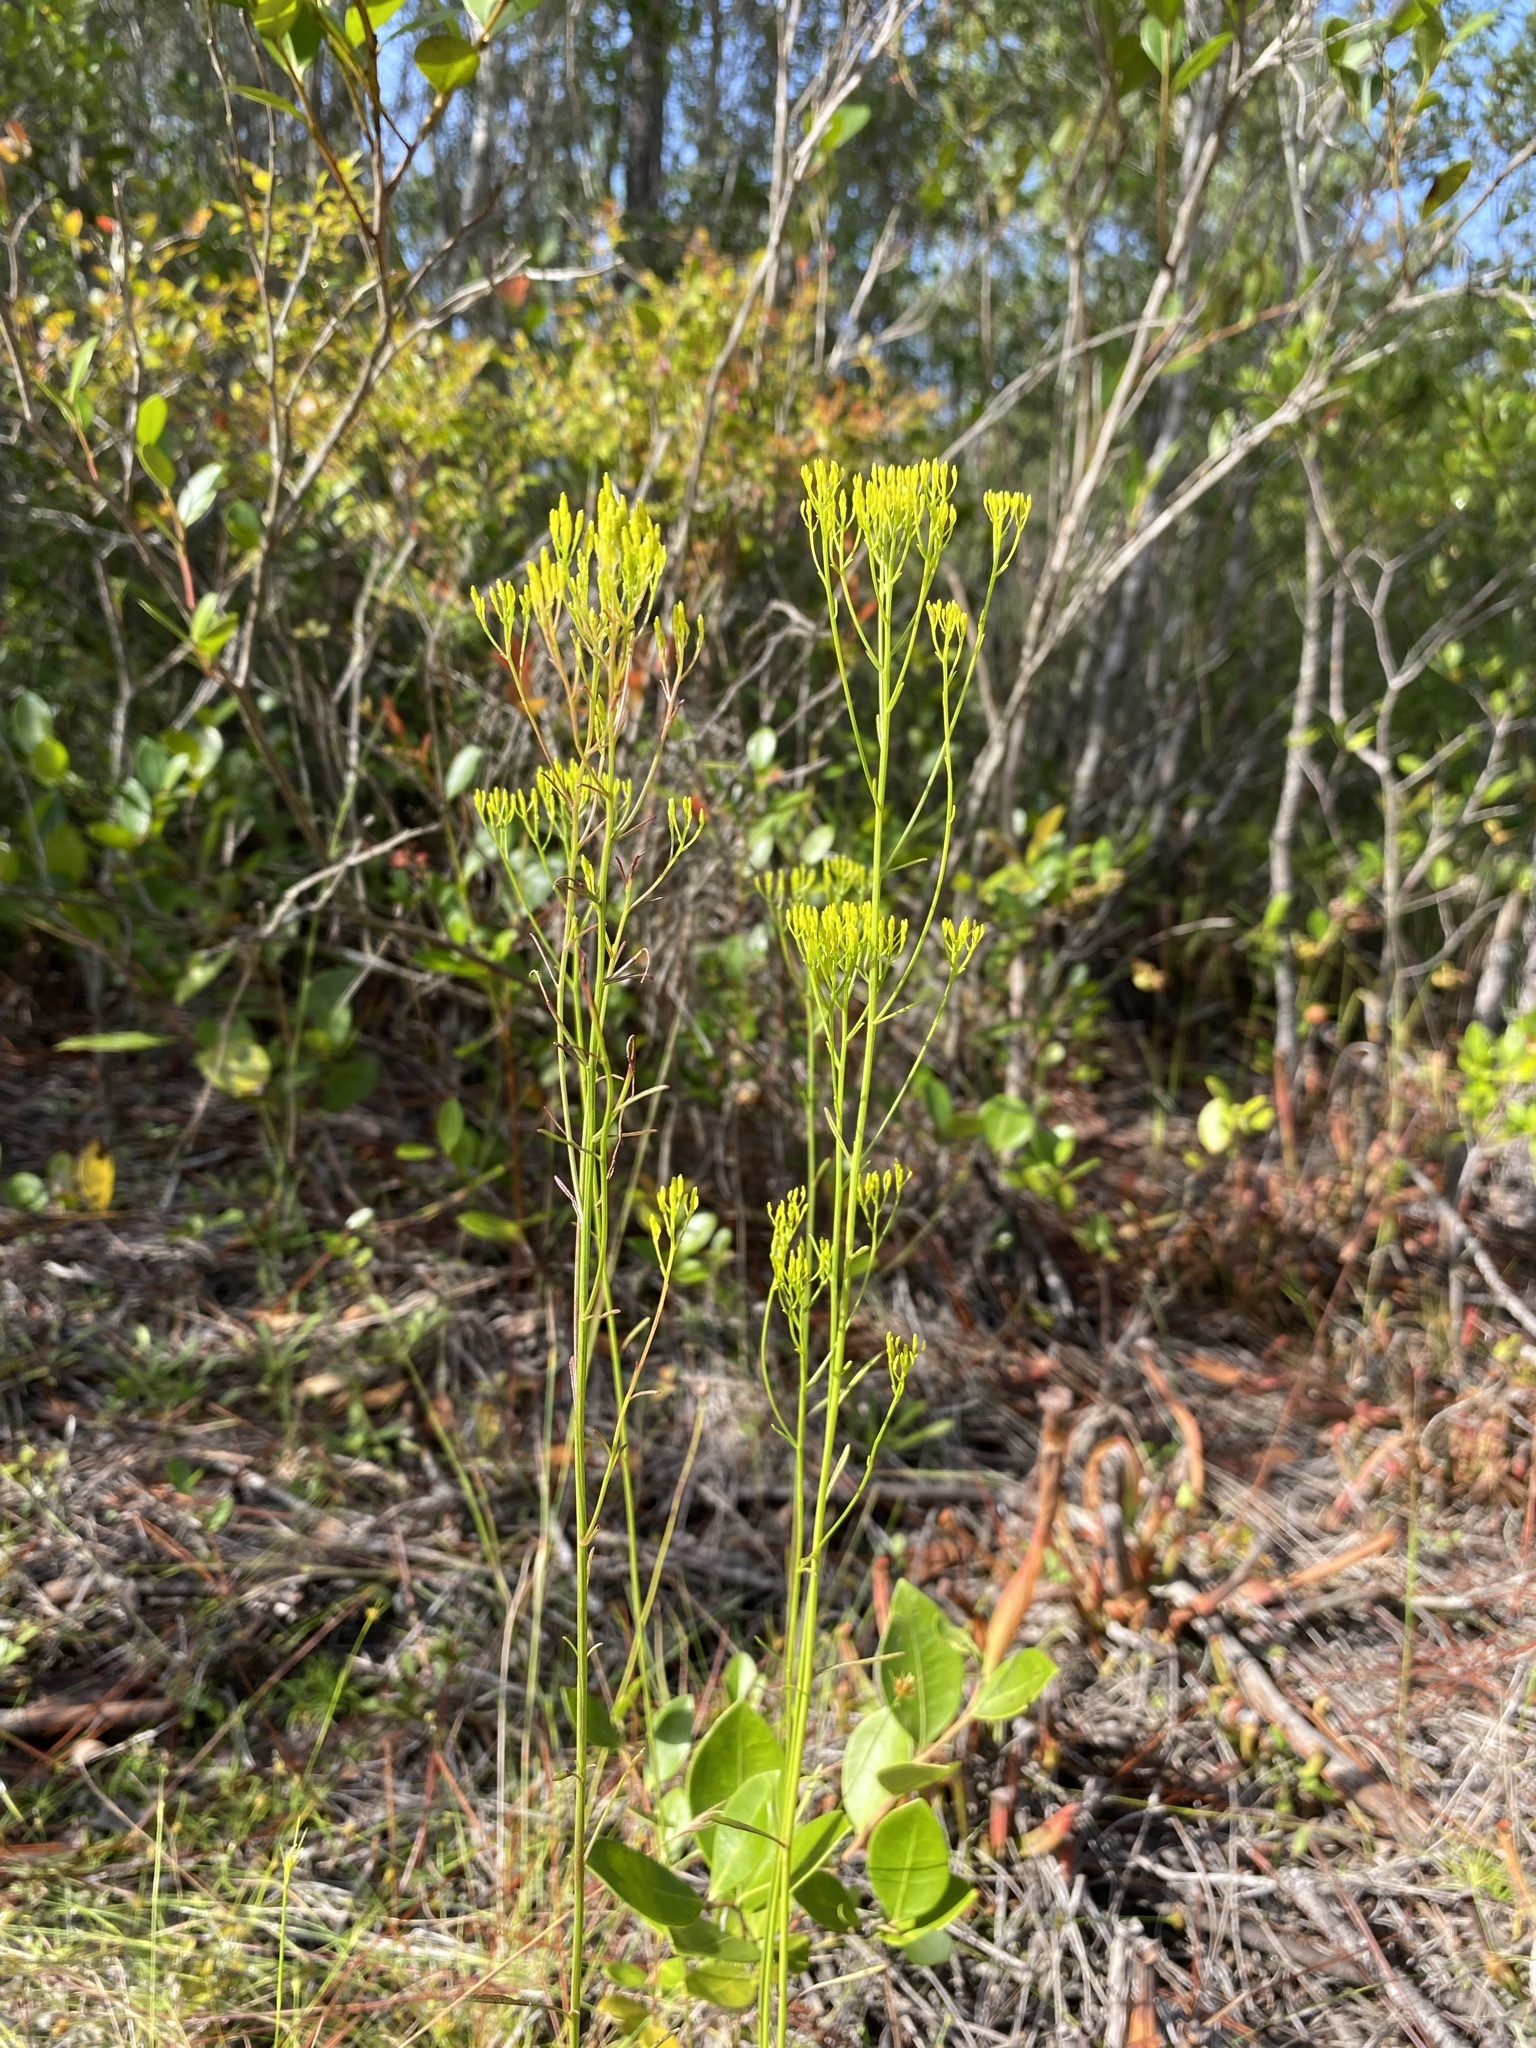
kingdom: Plantae
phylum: Tracheophyta
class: Magnoliopsida
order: Asterales
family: Asteraceae
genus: Bigelowia
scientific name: Bigelowia nudata
